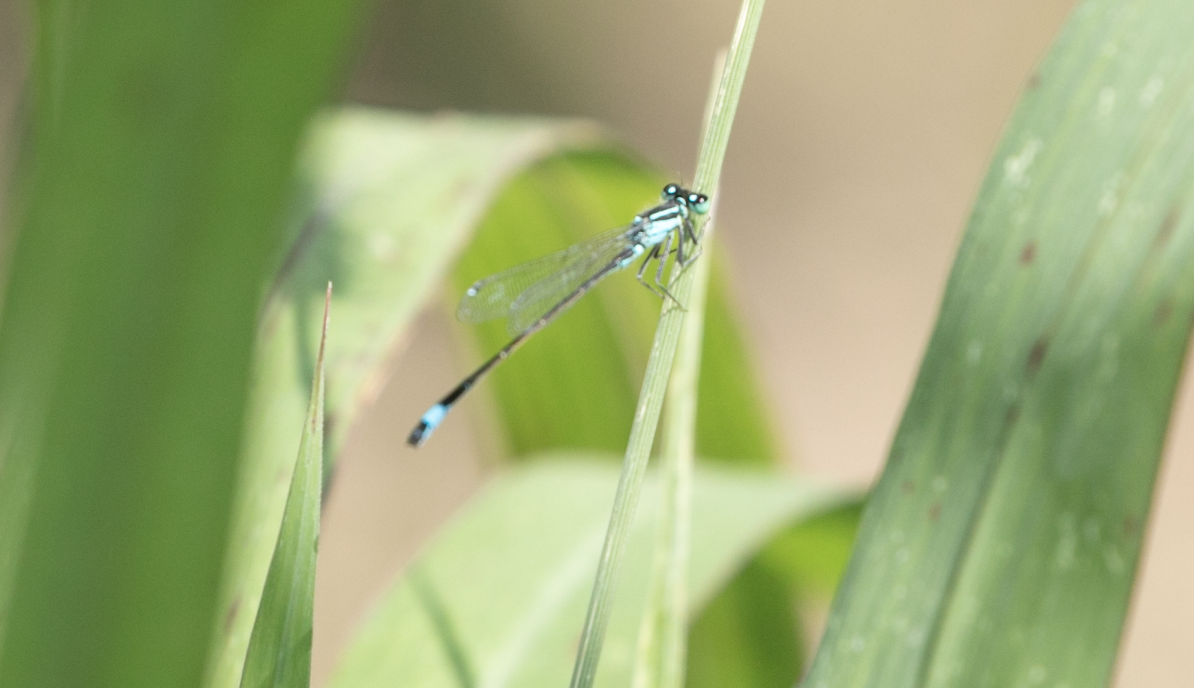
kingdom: Animalia
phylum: Arthropoda
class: Insecta
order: Odonata
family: Coenagrionidae
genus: Ischnura
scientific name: Ischnura elegans
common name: Blue-tailed damselfly
